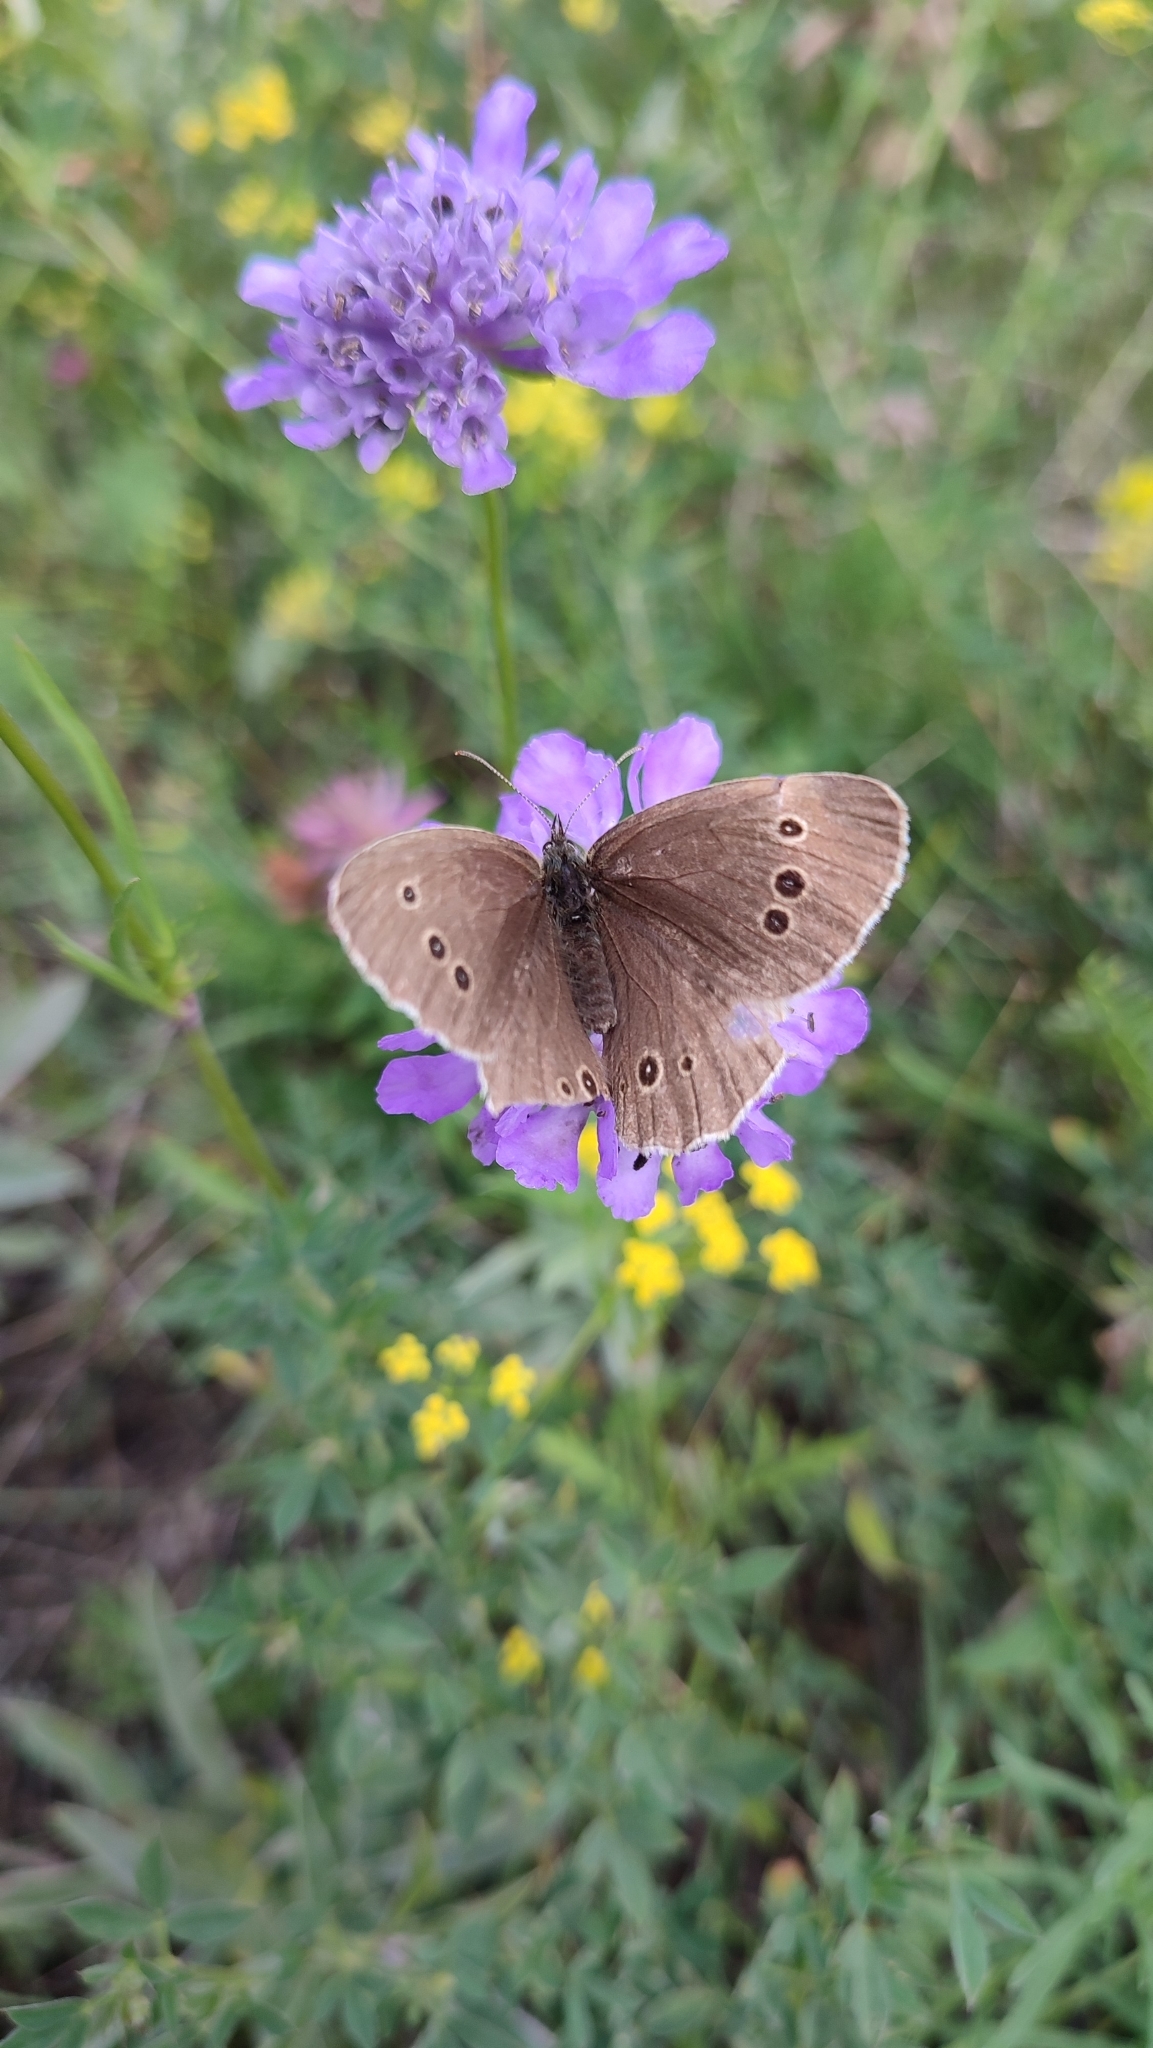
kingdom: Animalia
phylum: Arthropoda
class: Insecta
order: Lepidoptera
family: Nymphalidae
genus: Aphantopus
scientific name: Aphantopus hyperantus
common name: Ringlet
